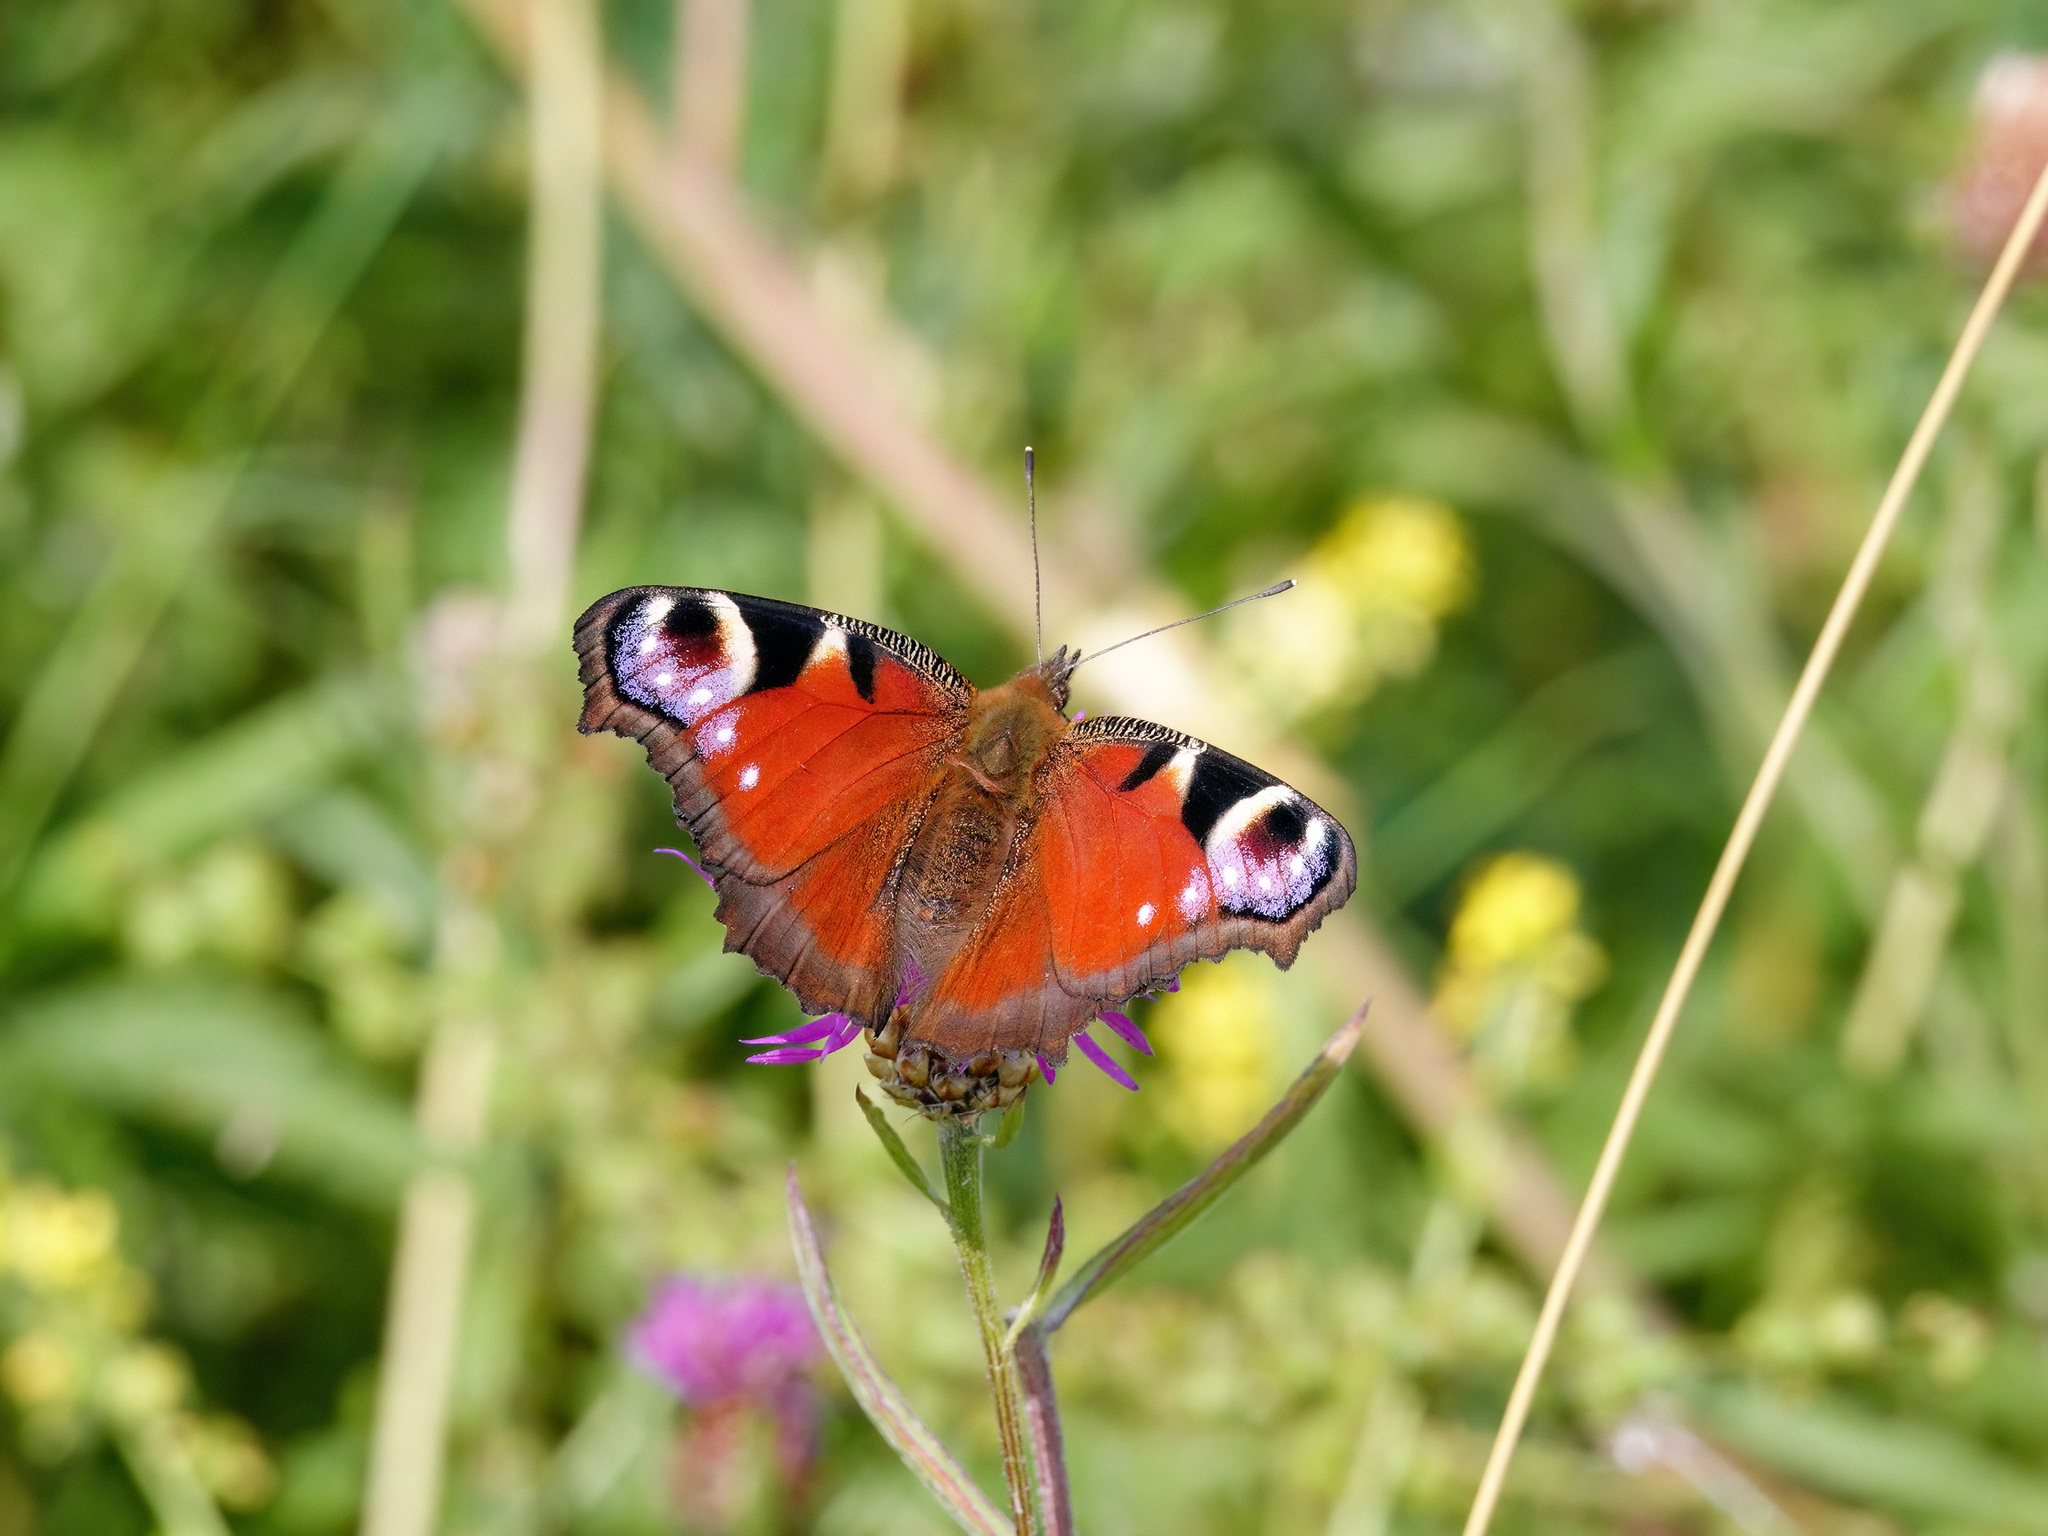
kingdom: Animalia
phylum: Arthropoda
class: Insecta
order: Lepidoptera
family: Nymphalidae
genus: Aglais
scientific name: Aglais io
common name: Peacock
